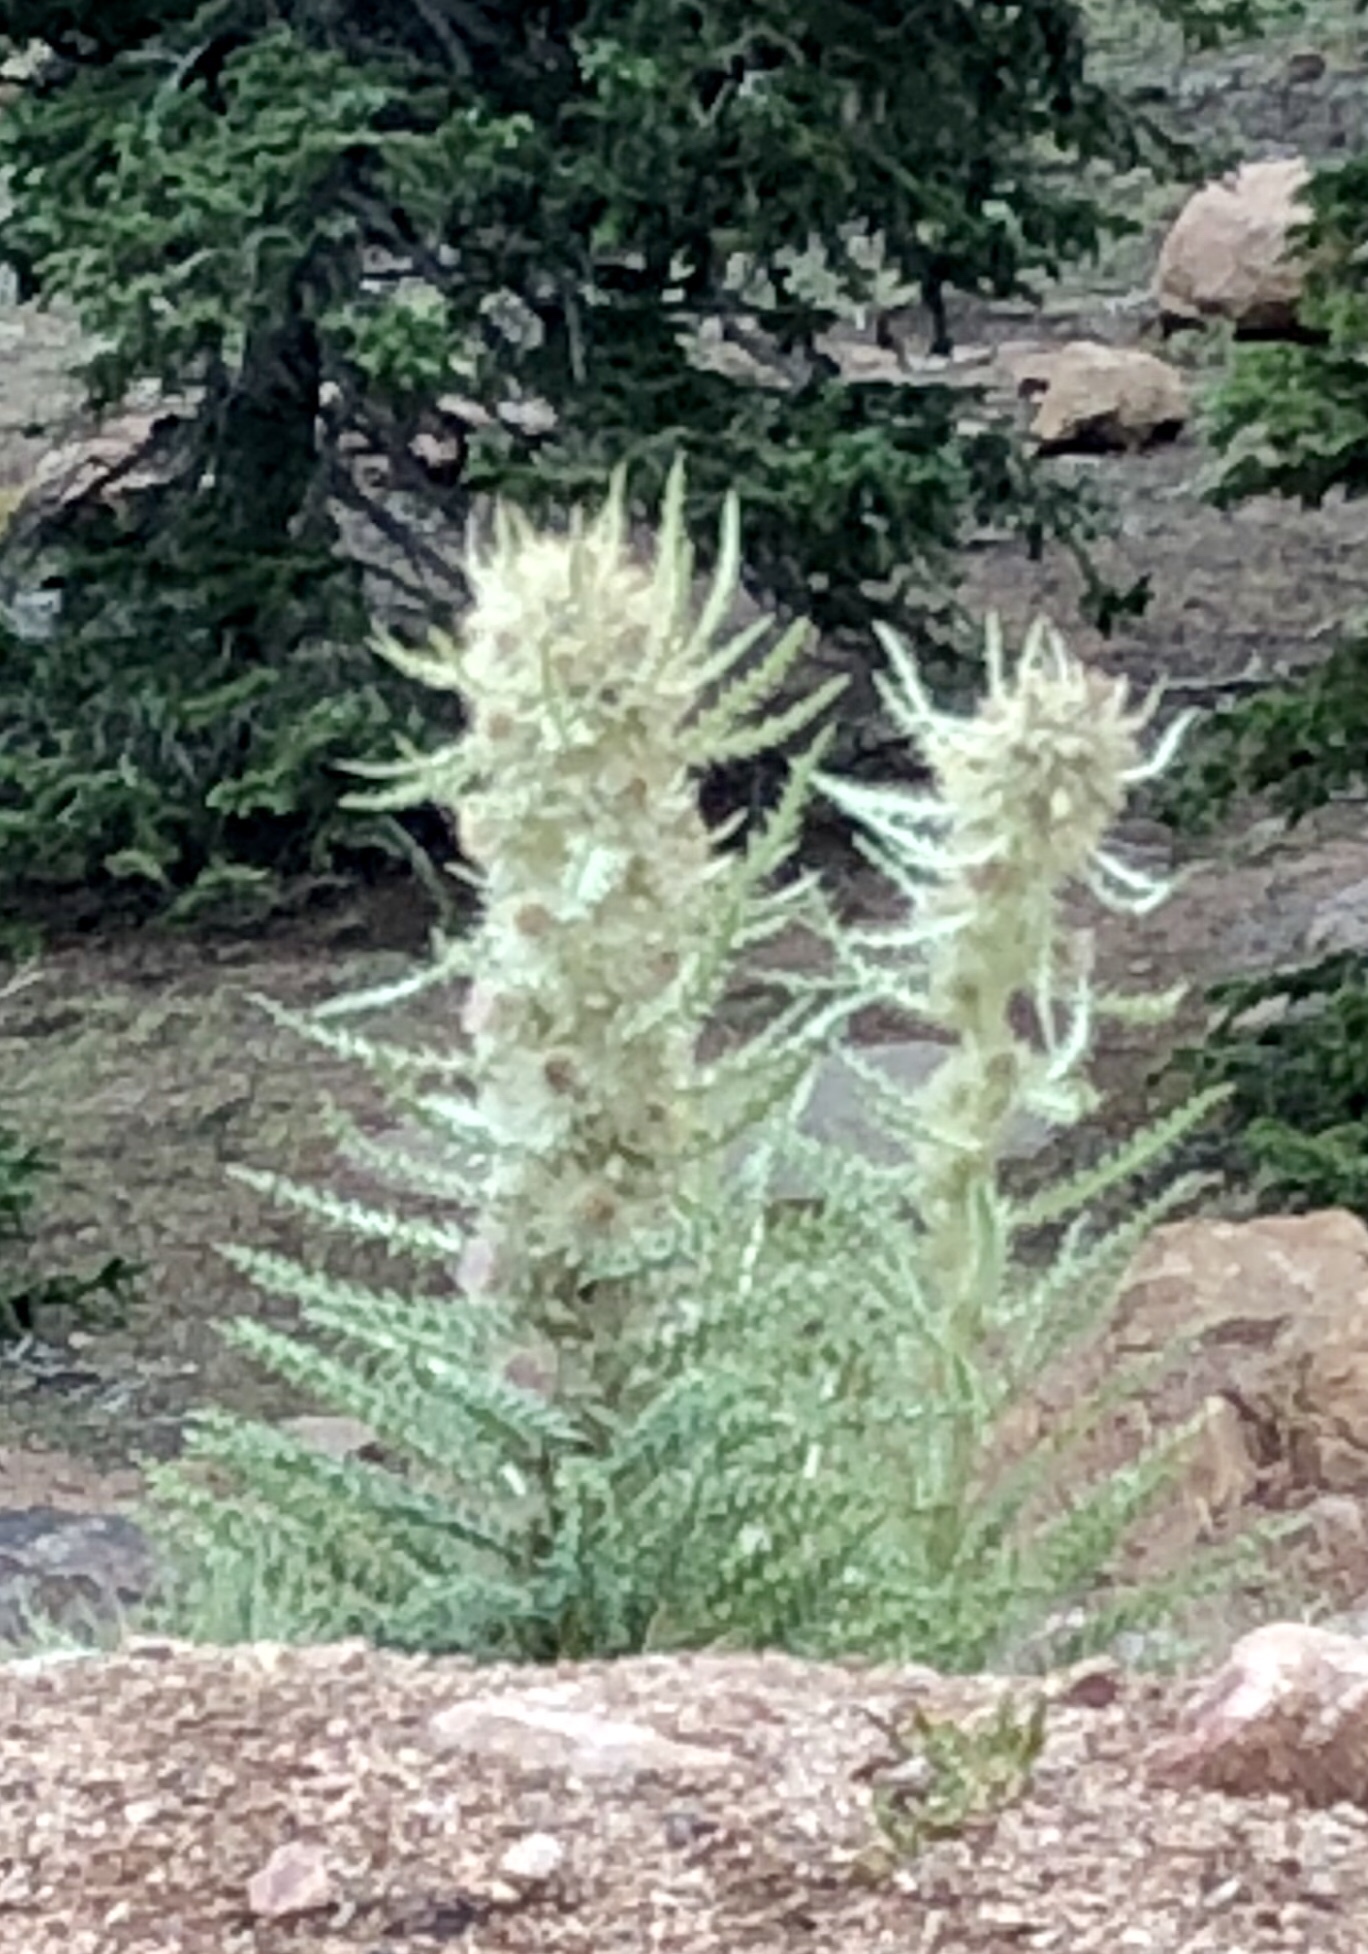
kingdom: Plantae
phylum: Tracheophyta
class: Magnoliopsida
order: Asterales
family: Asteraceae
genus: Cirsium
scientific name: Cirsium scopulorum
